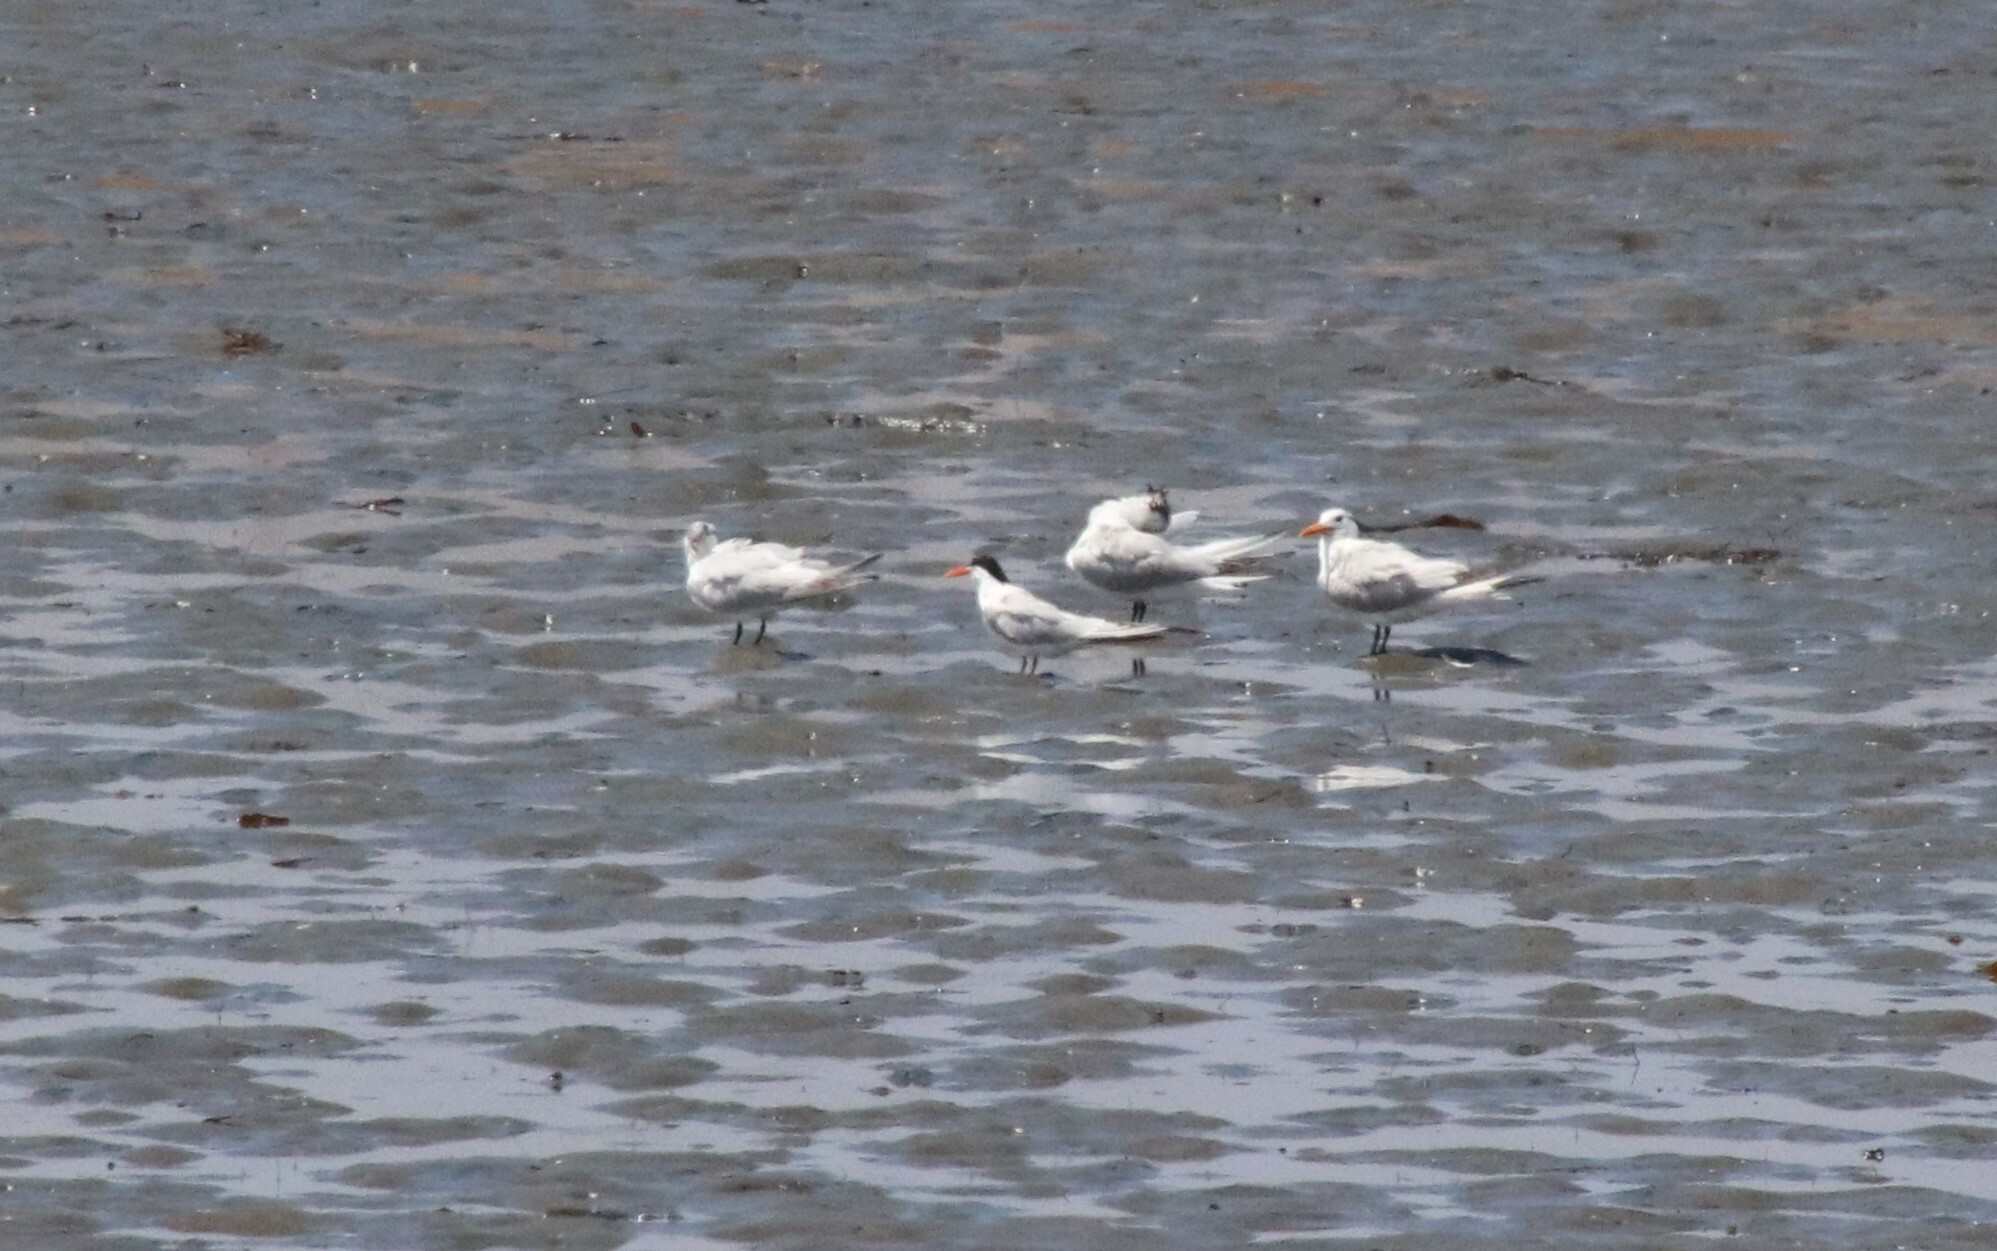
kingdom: Animalia
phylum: Chordata
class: Aves
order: Charadriiformes
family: Laridae
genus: Thalasseus
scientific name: Thalasseus elegans
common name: Elegant tern
